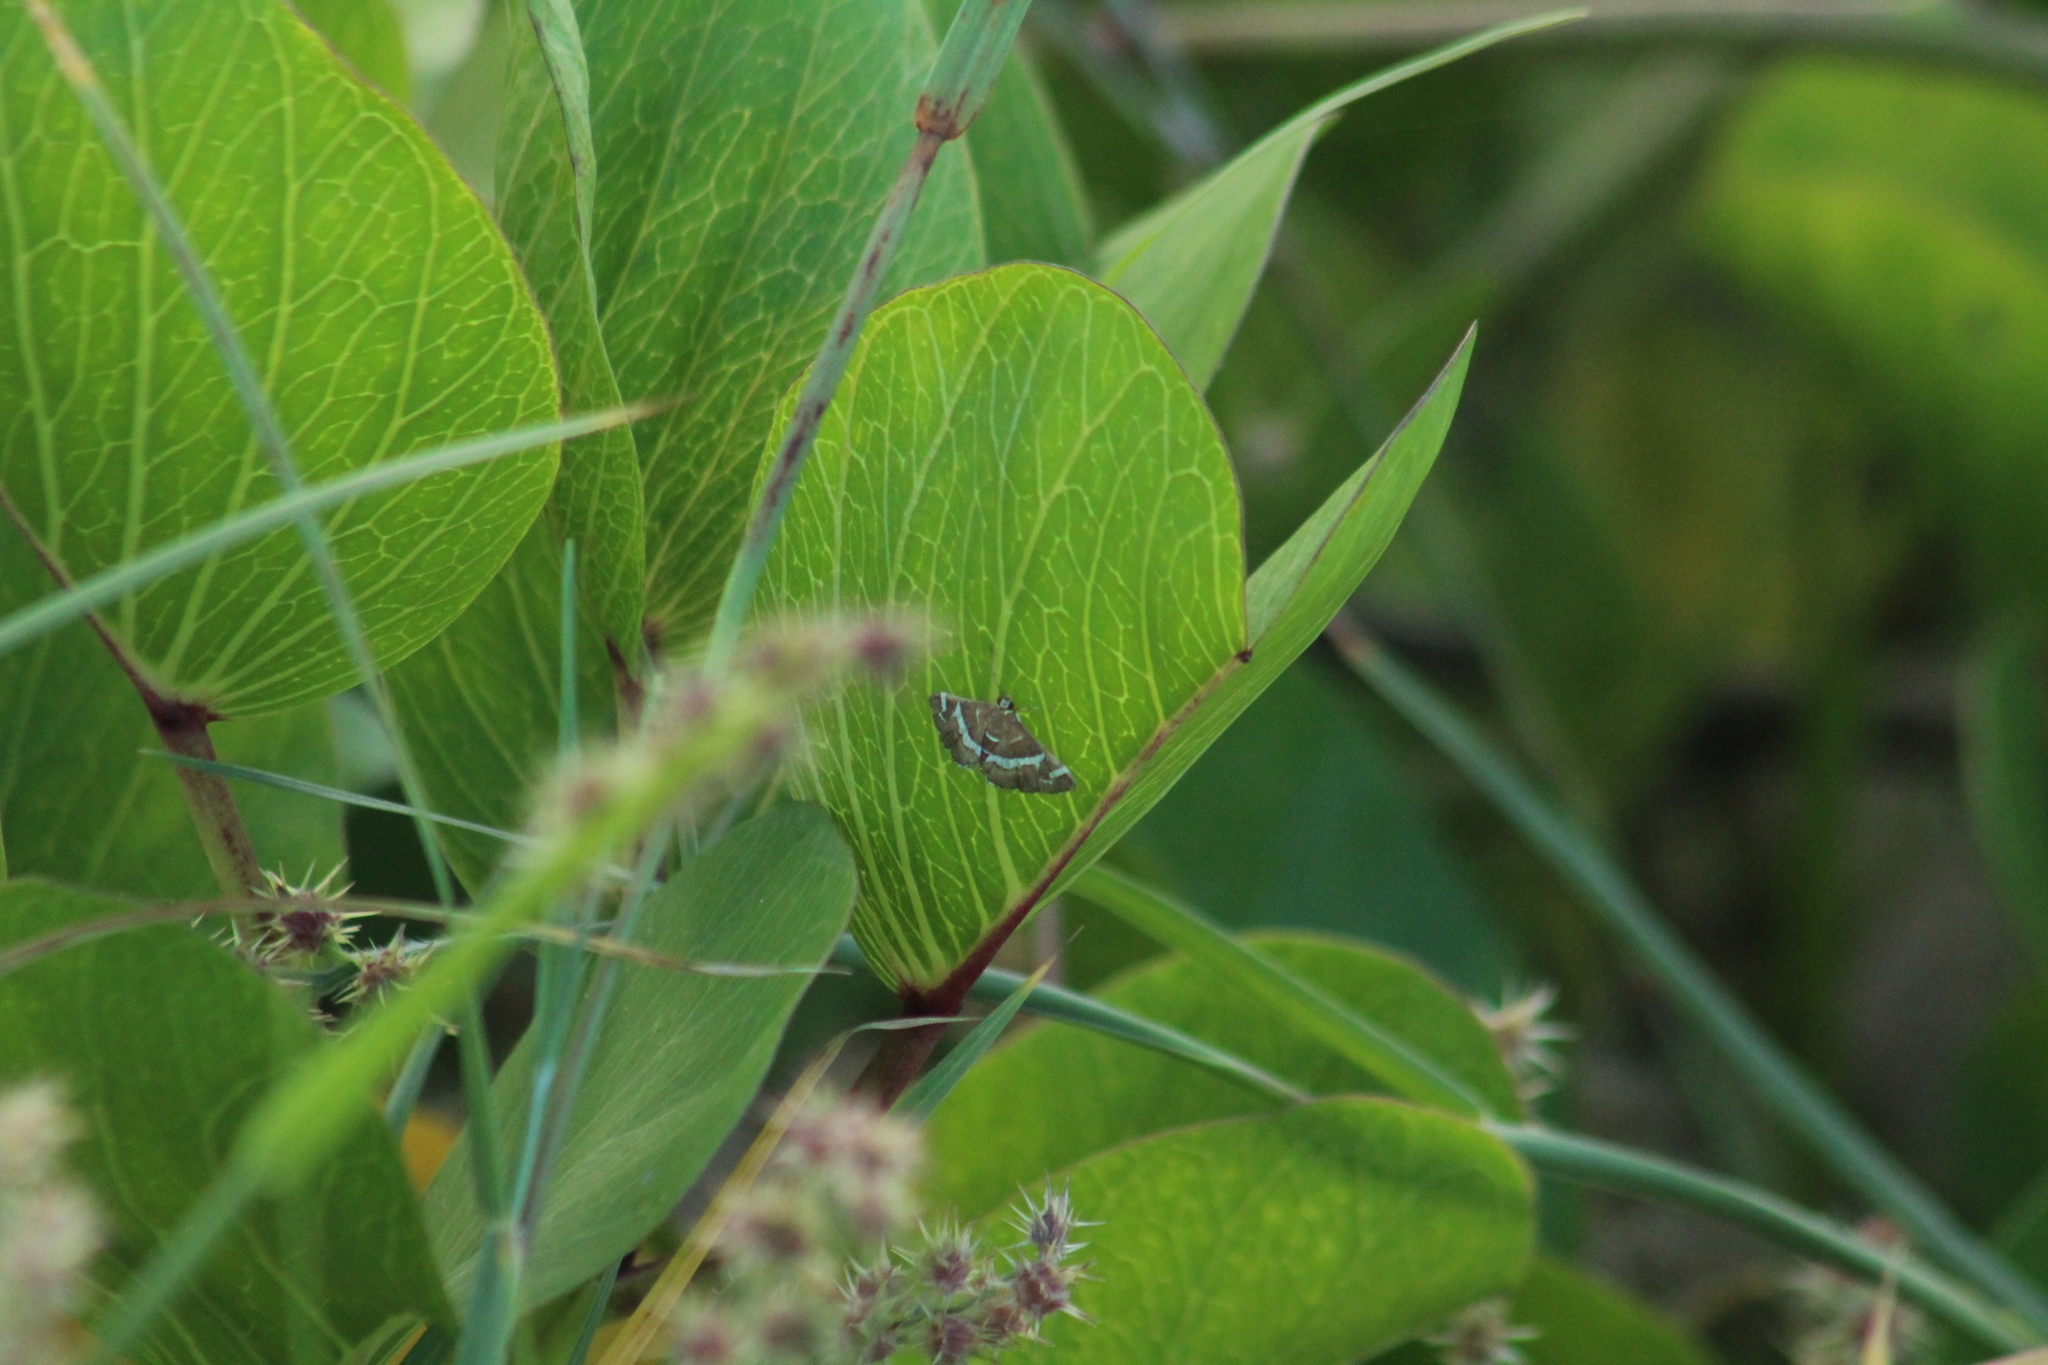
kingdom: Animalia
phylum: Arthropoda
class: Insecta
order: Lepidoptera
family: Crambidae
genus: Spoladea
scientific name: Spoladea recurvalis
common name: Beet webworm moth
